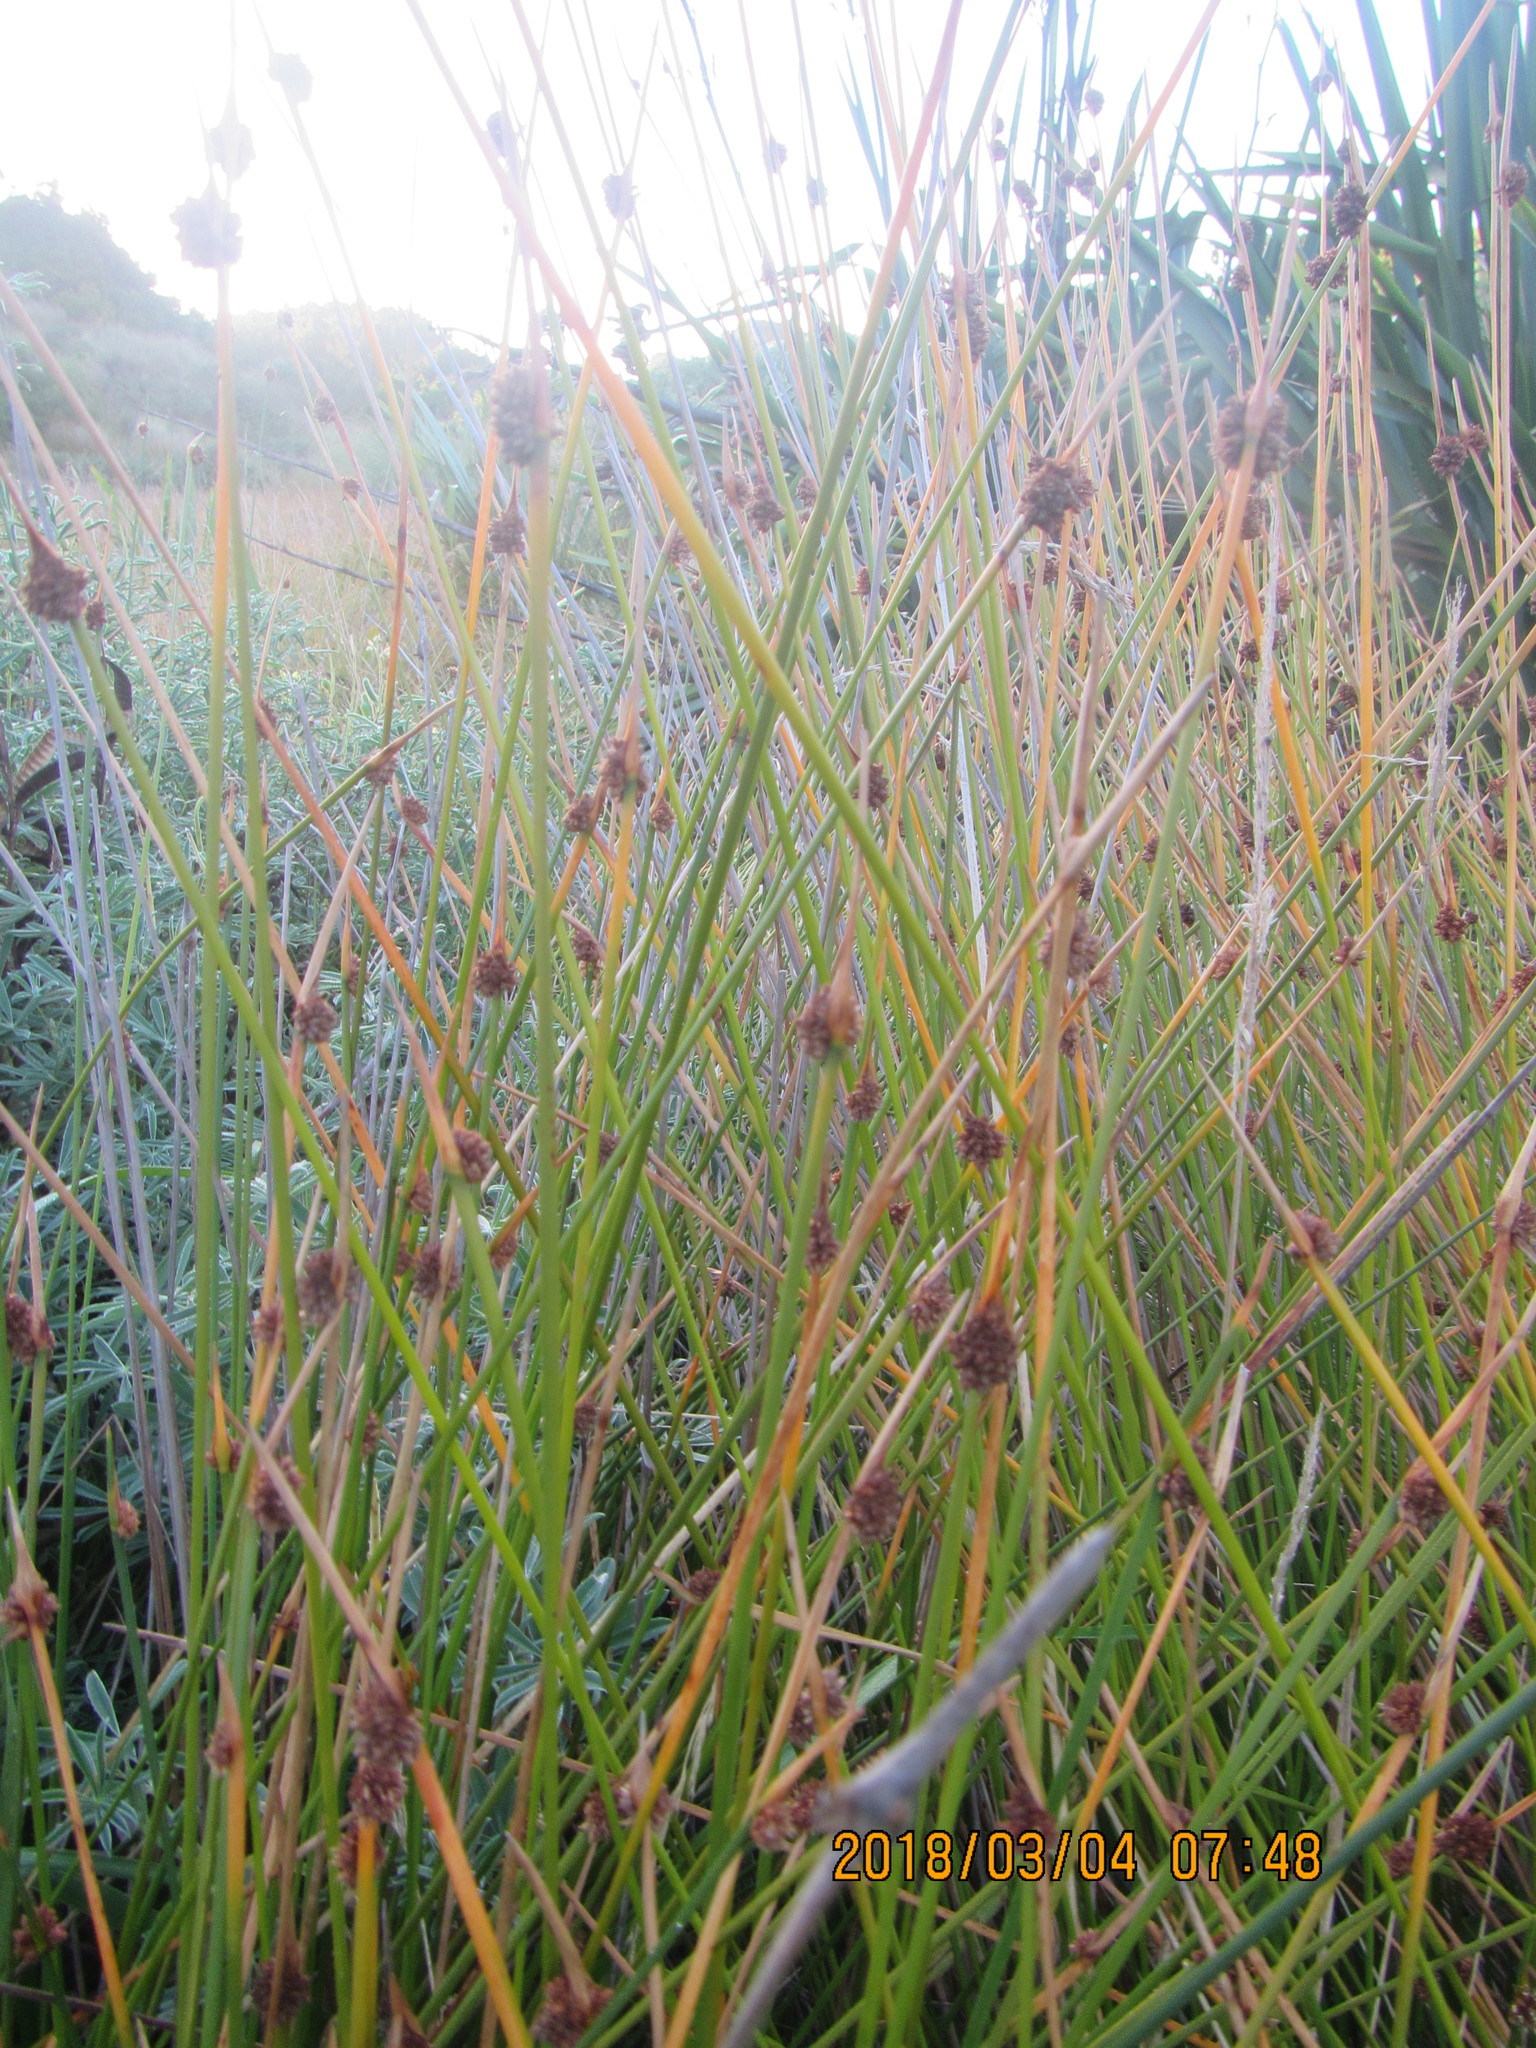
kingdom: Plantae
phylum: Tracheophyta
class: Liliopsida
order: Poales
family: Cyperaceae
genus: Ficinia
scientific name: Ficinia nodosa
